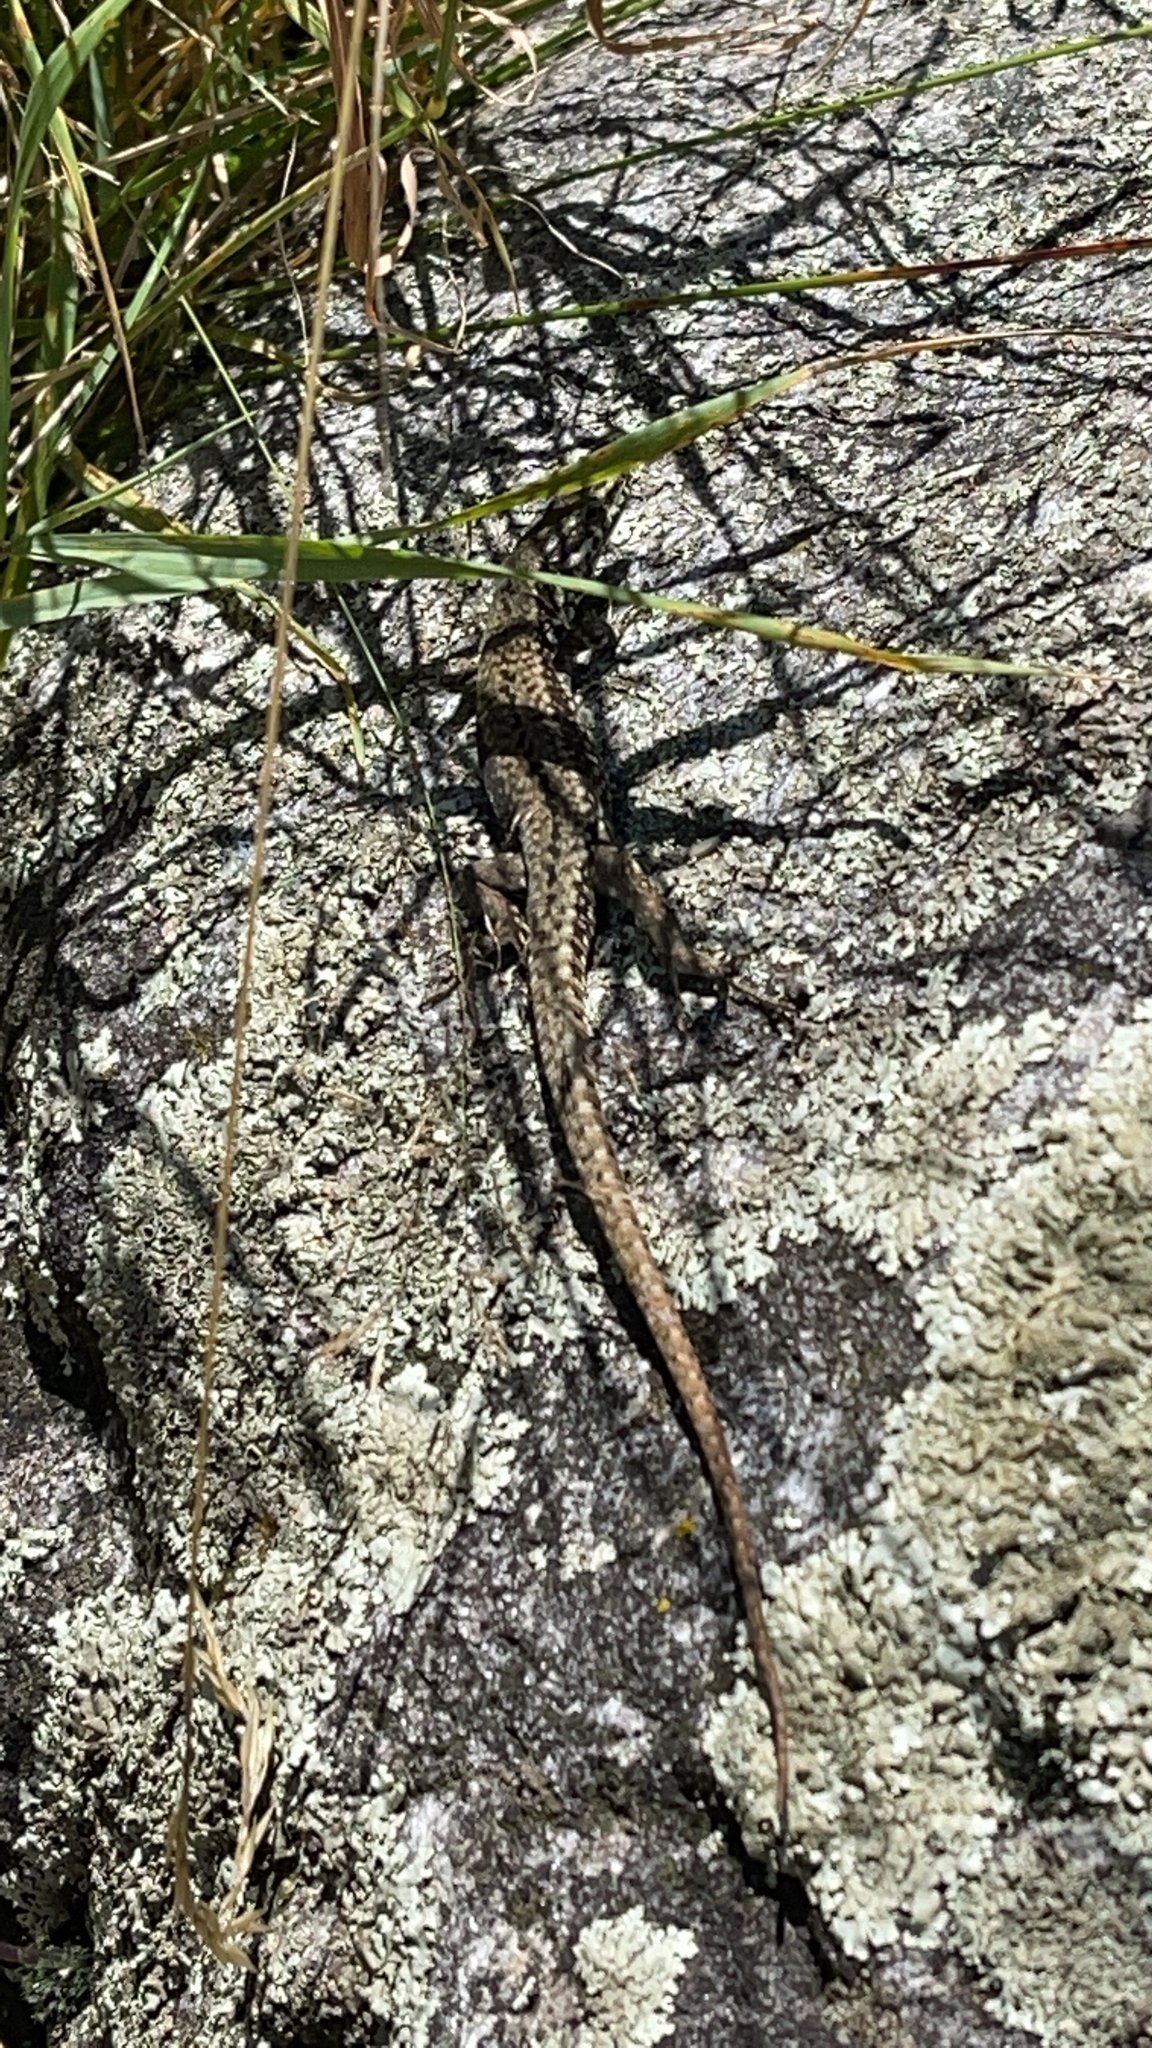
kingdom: Animalia
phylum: Chordata
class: Squamata
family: Lacertidae
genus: Podarcis
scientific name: Podarcis muralis
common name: Common wall lizard
